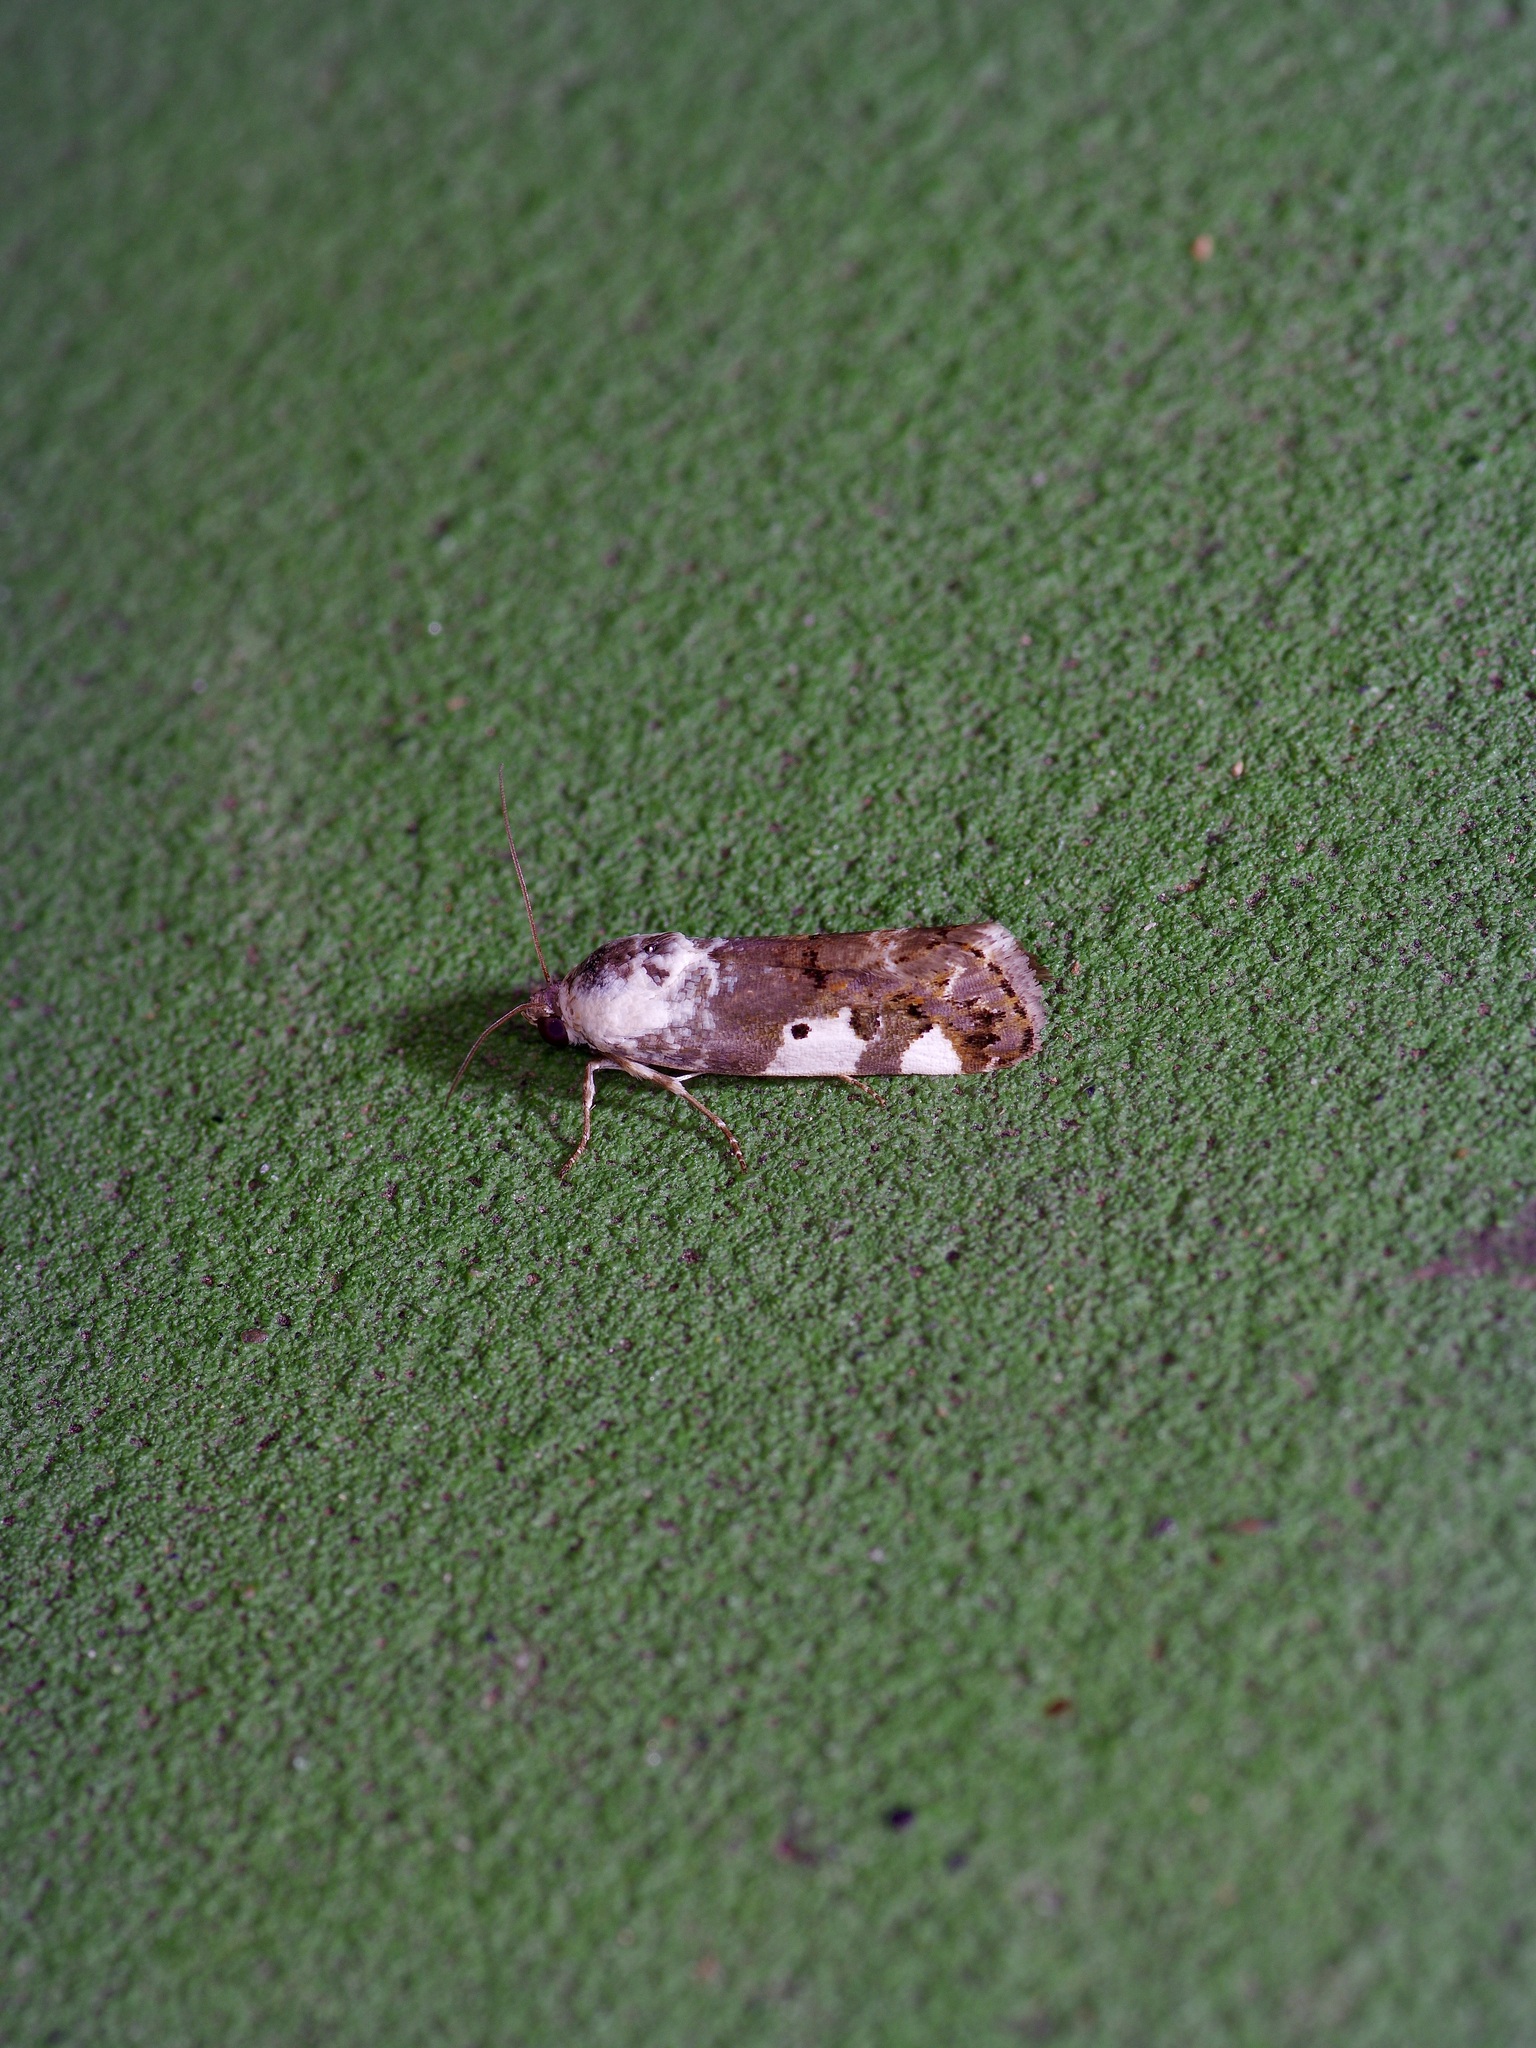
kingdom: Animalia
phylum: Arthropoda
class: Insecta
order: Lepidoptera
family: Noctuidae
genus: Acontia
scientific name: Acontia aprica
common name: Nun
